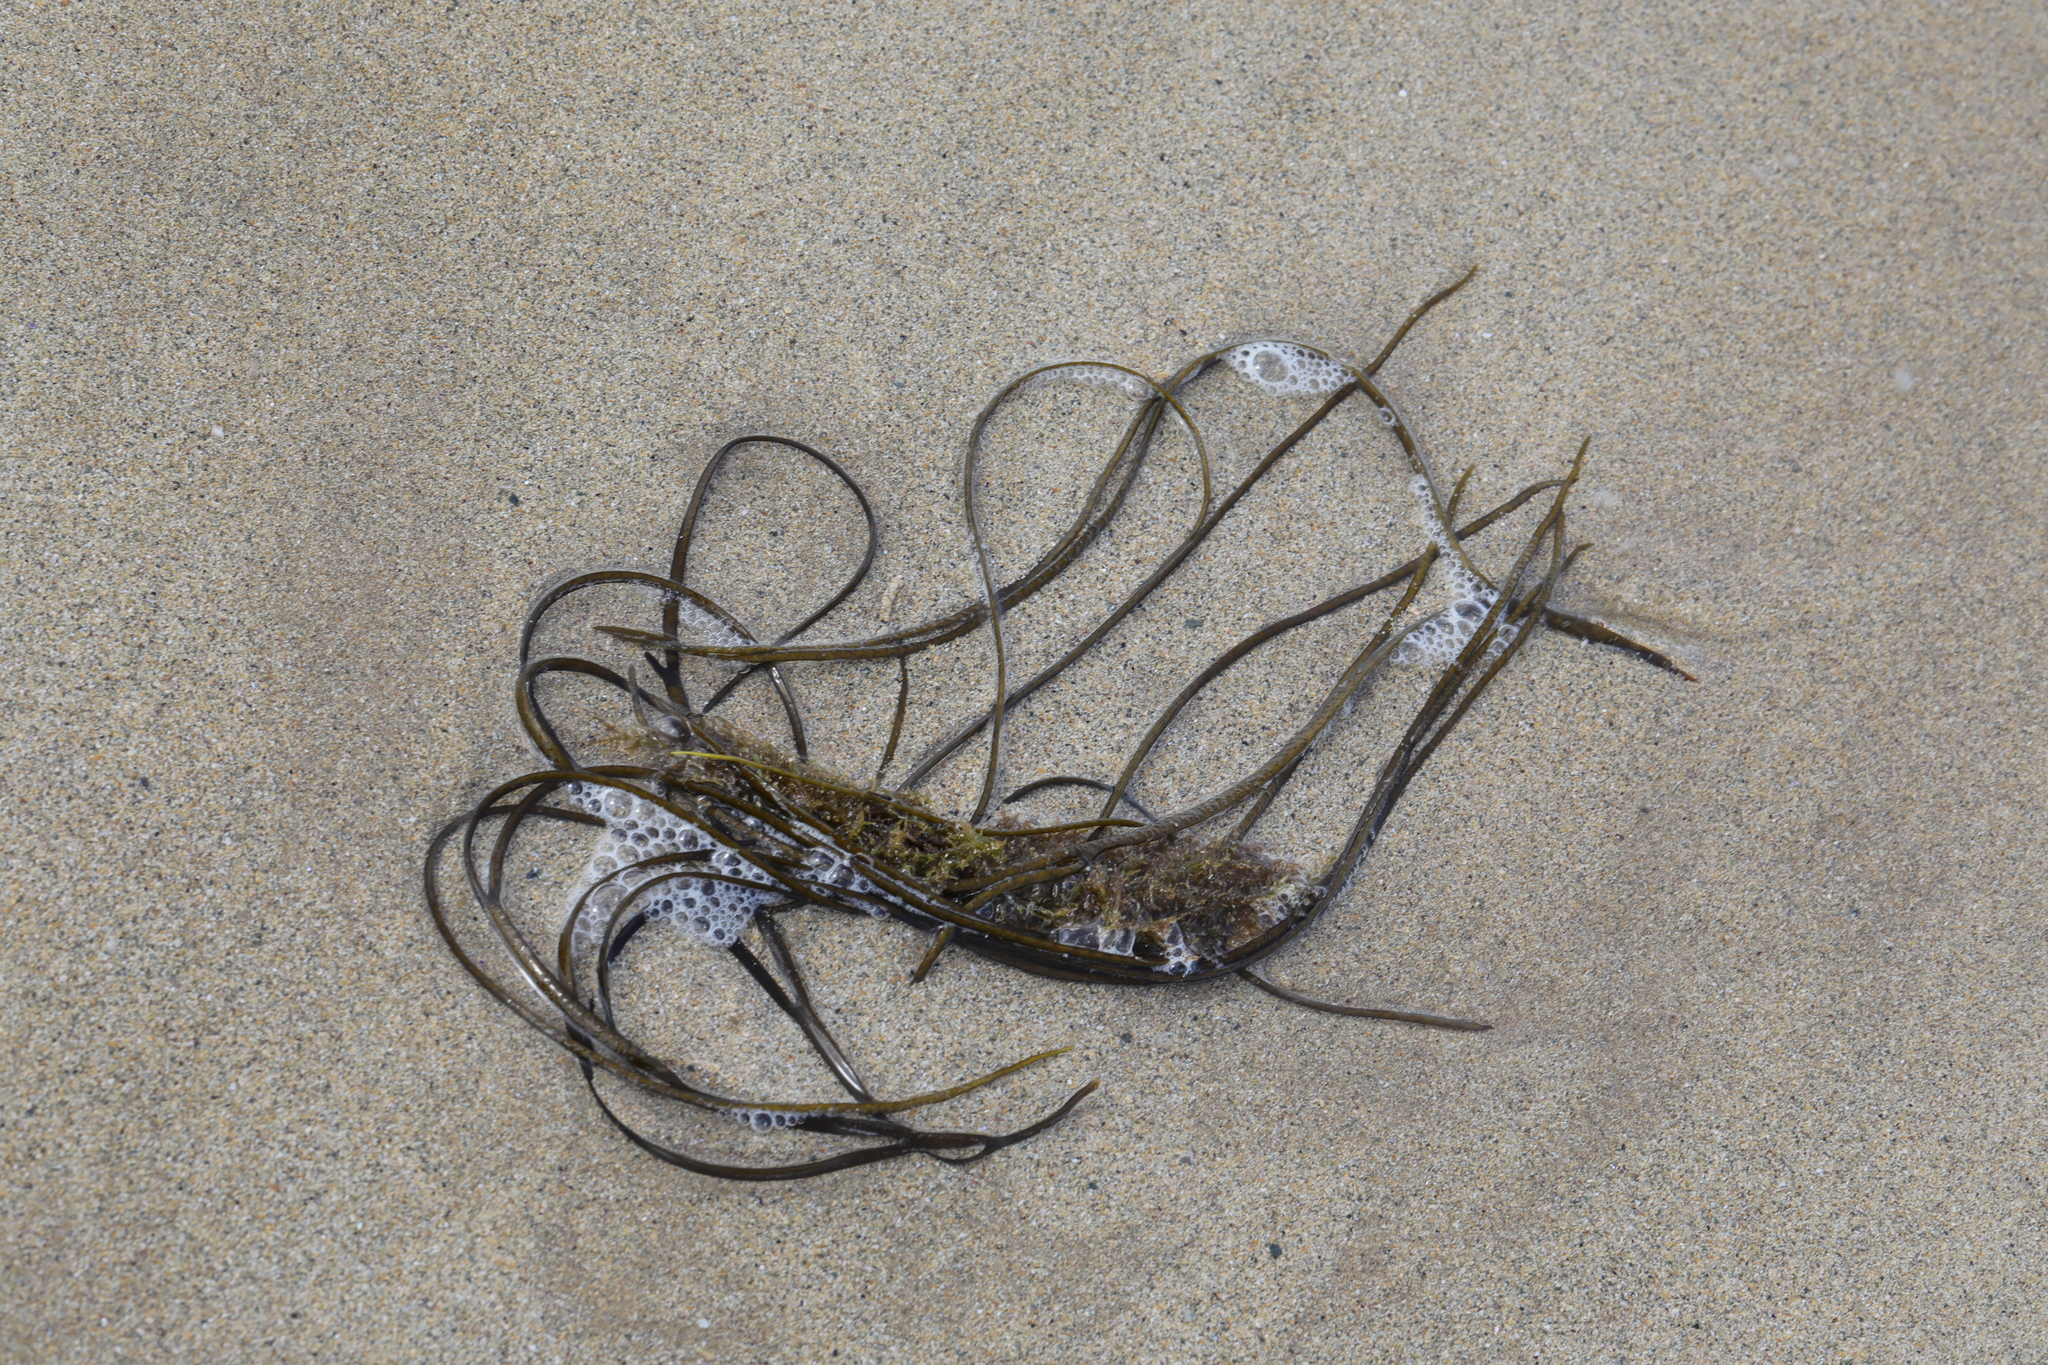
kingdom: Chromista
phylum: Ochrophyta
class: Phaeophyceae
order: Fucales
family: Himanthaliaceae
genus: Himanthalia
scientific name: Himanthalia elongata
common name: Sea-thong
